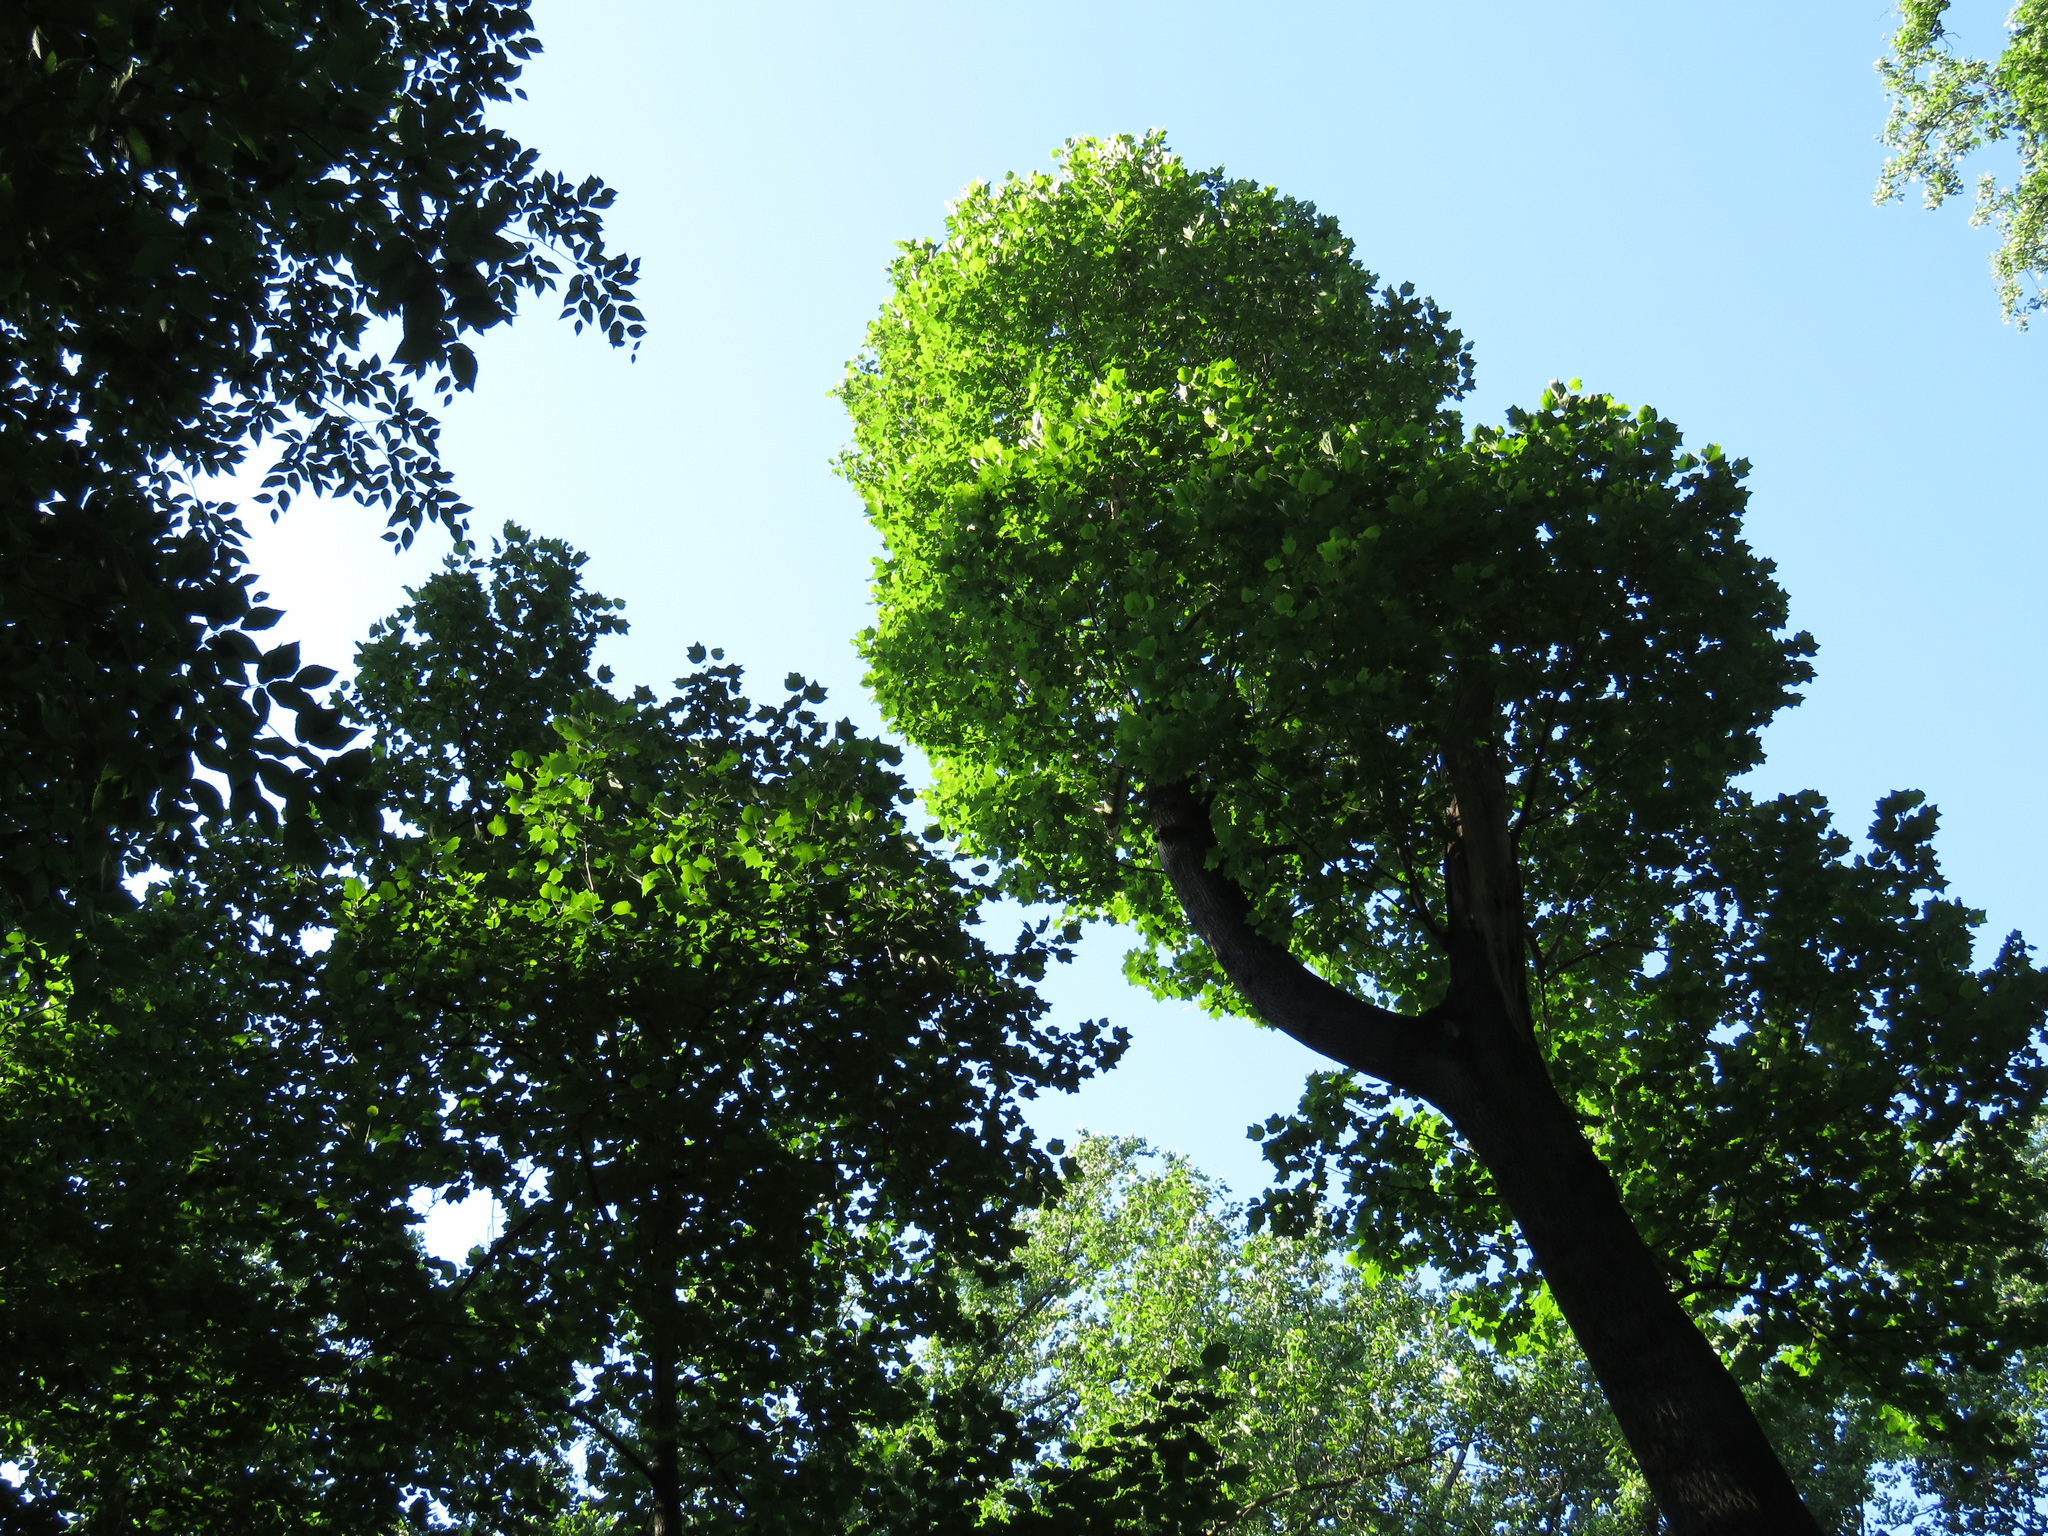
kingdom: Plantae
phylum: Tracheophyta
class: Magnoliopsida
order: Magnoliales
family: Magnoliaceae
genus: Liriodendron
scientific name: Liriodendron tulipifera
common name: Tulip tree
